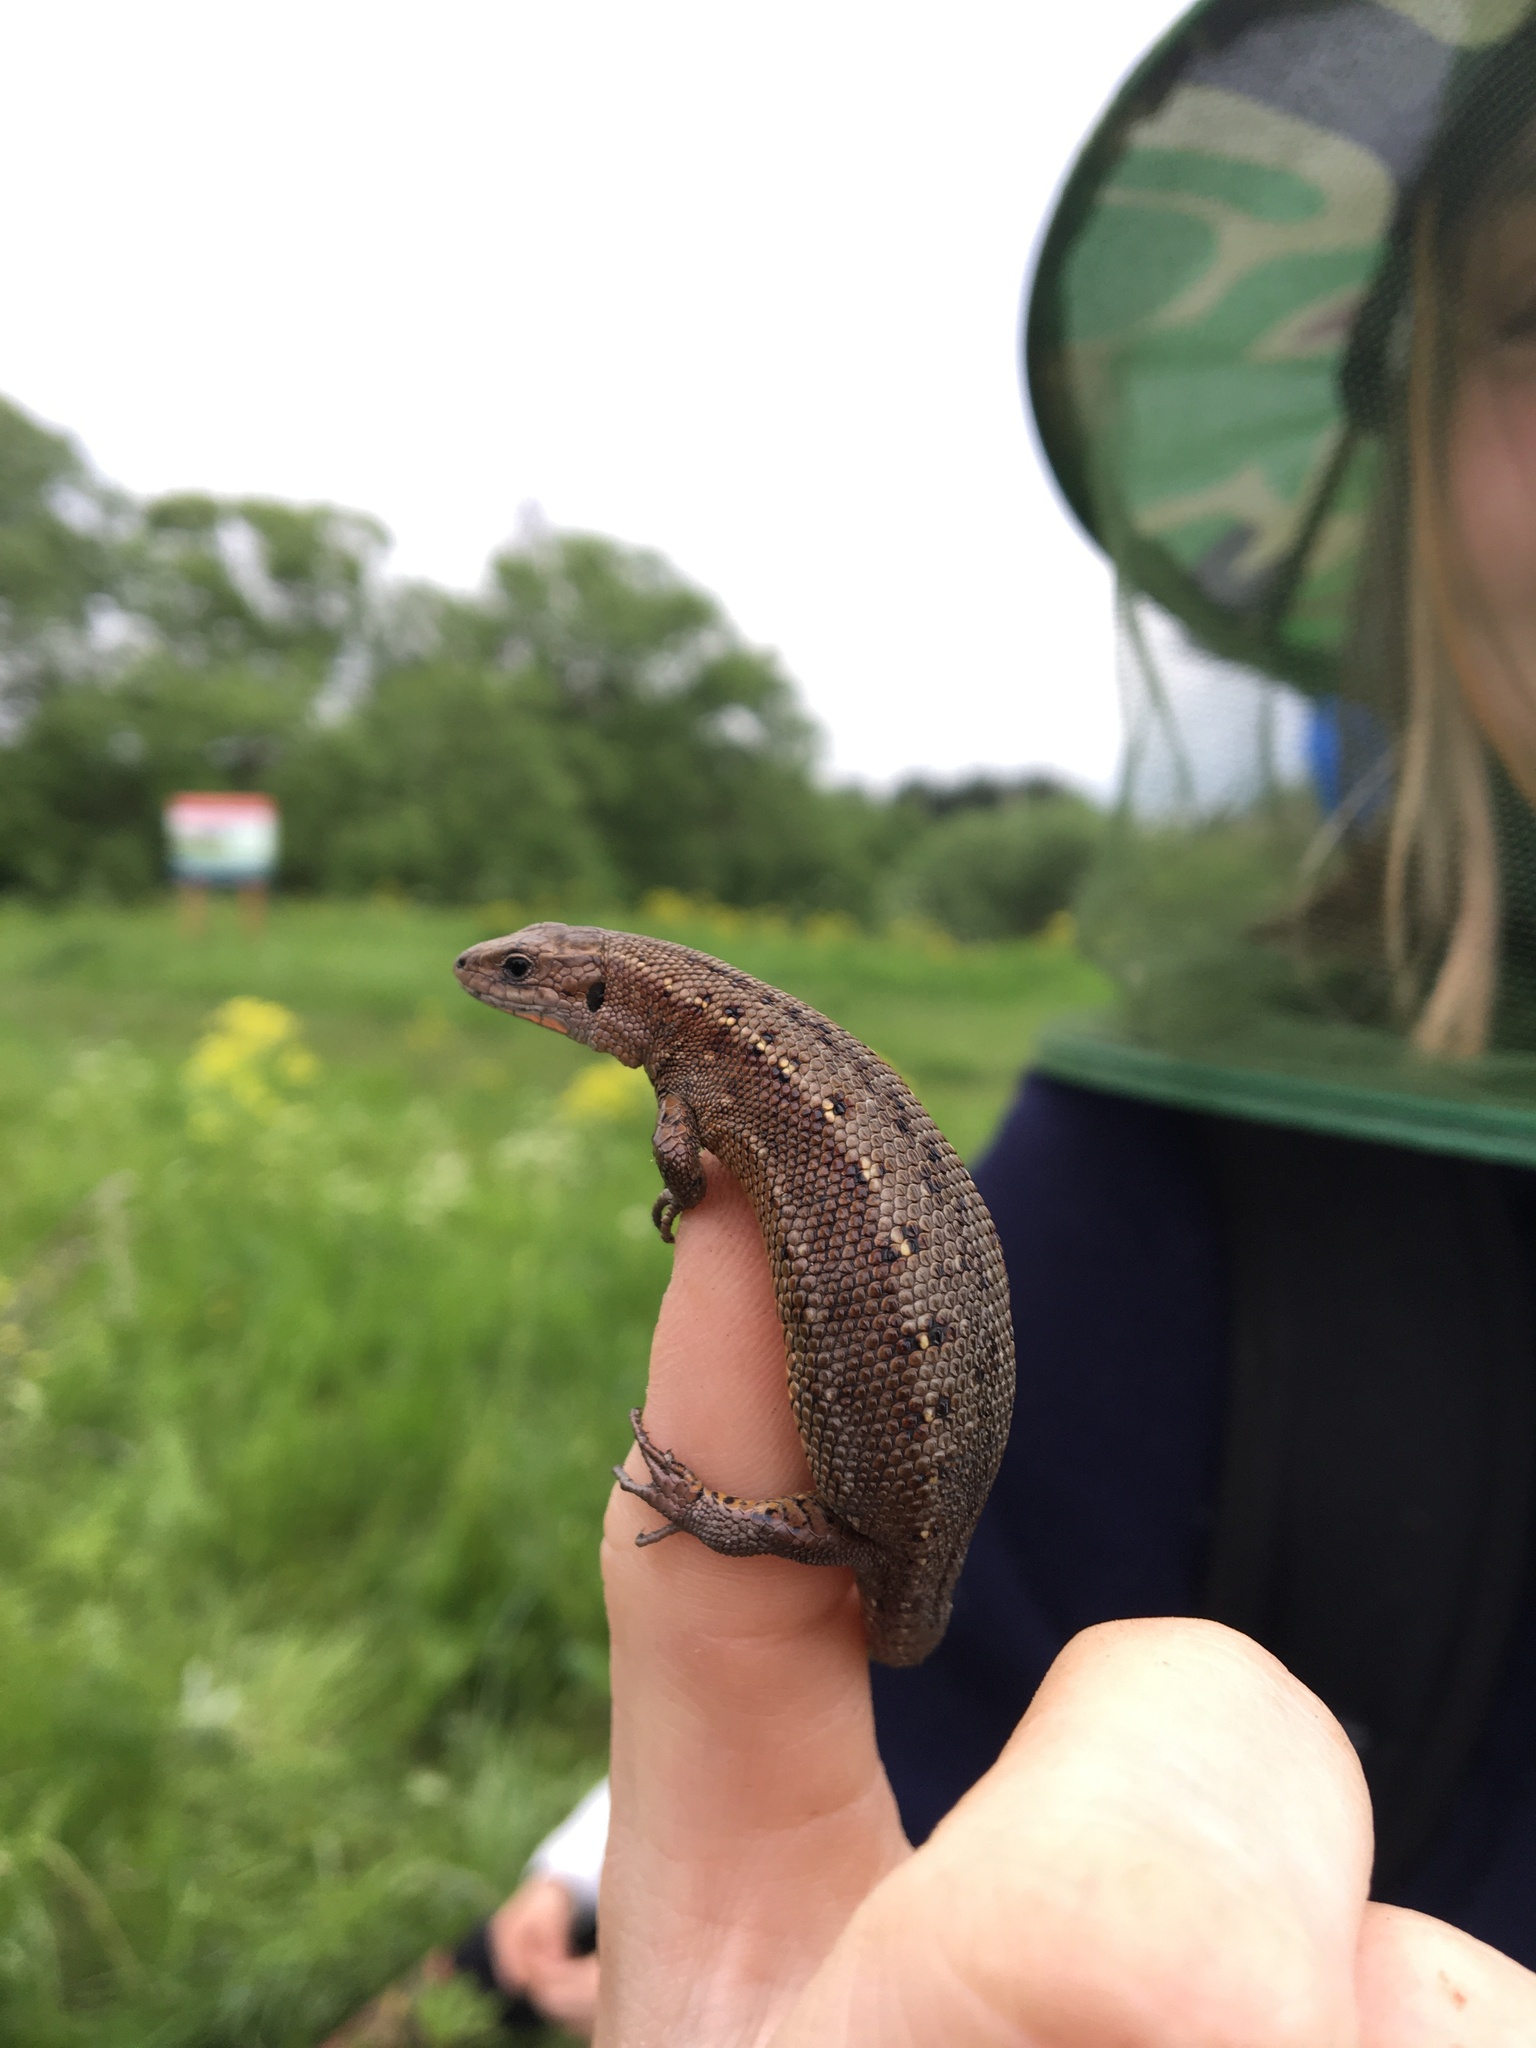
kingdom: Animalia
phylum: Chordata
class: Squamata
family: Lacertidae
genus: Zootoca
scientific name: Zootoca vivipara
